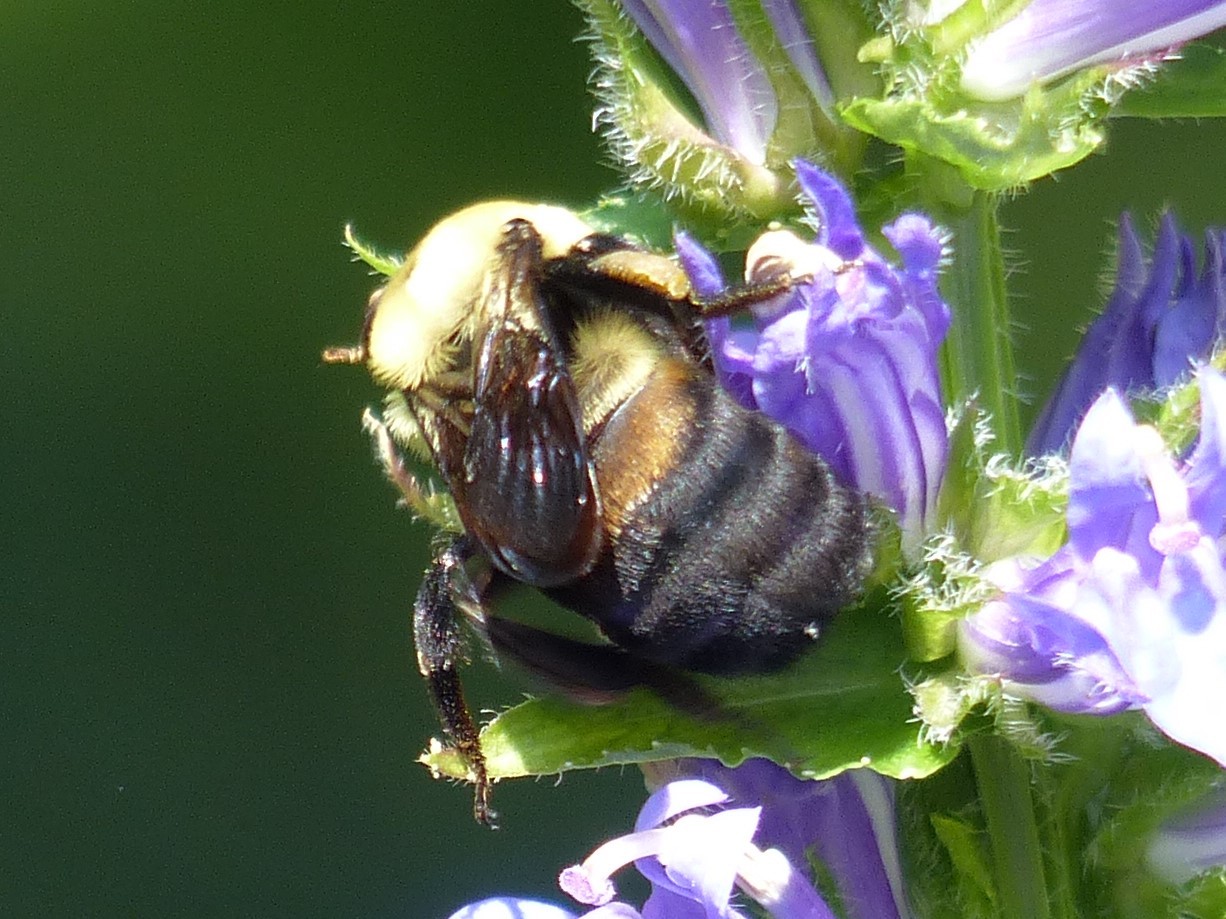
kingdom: Animalia
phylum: Arthropoda
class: Insecta
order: Hymenoptera
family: Apidae
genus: Bombus
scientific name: Bombus griseocollis
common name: Brown-belted bumble bee
